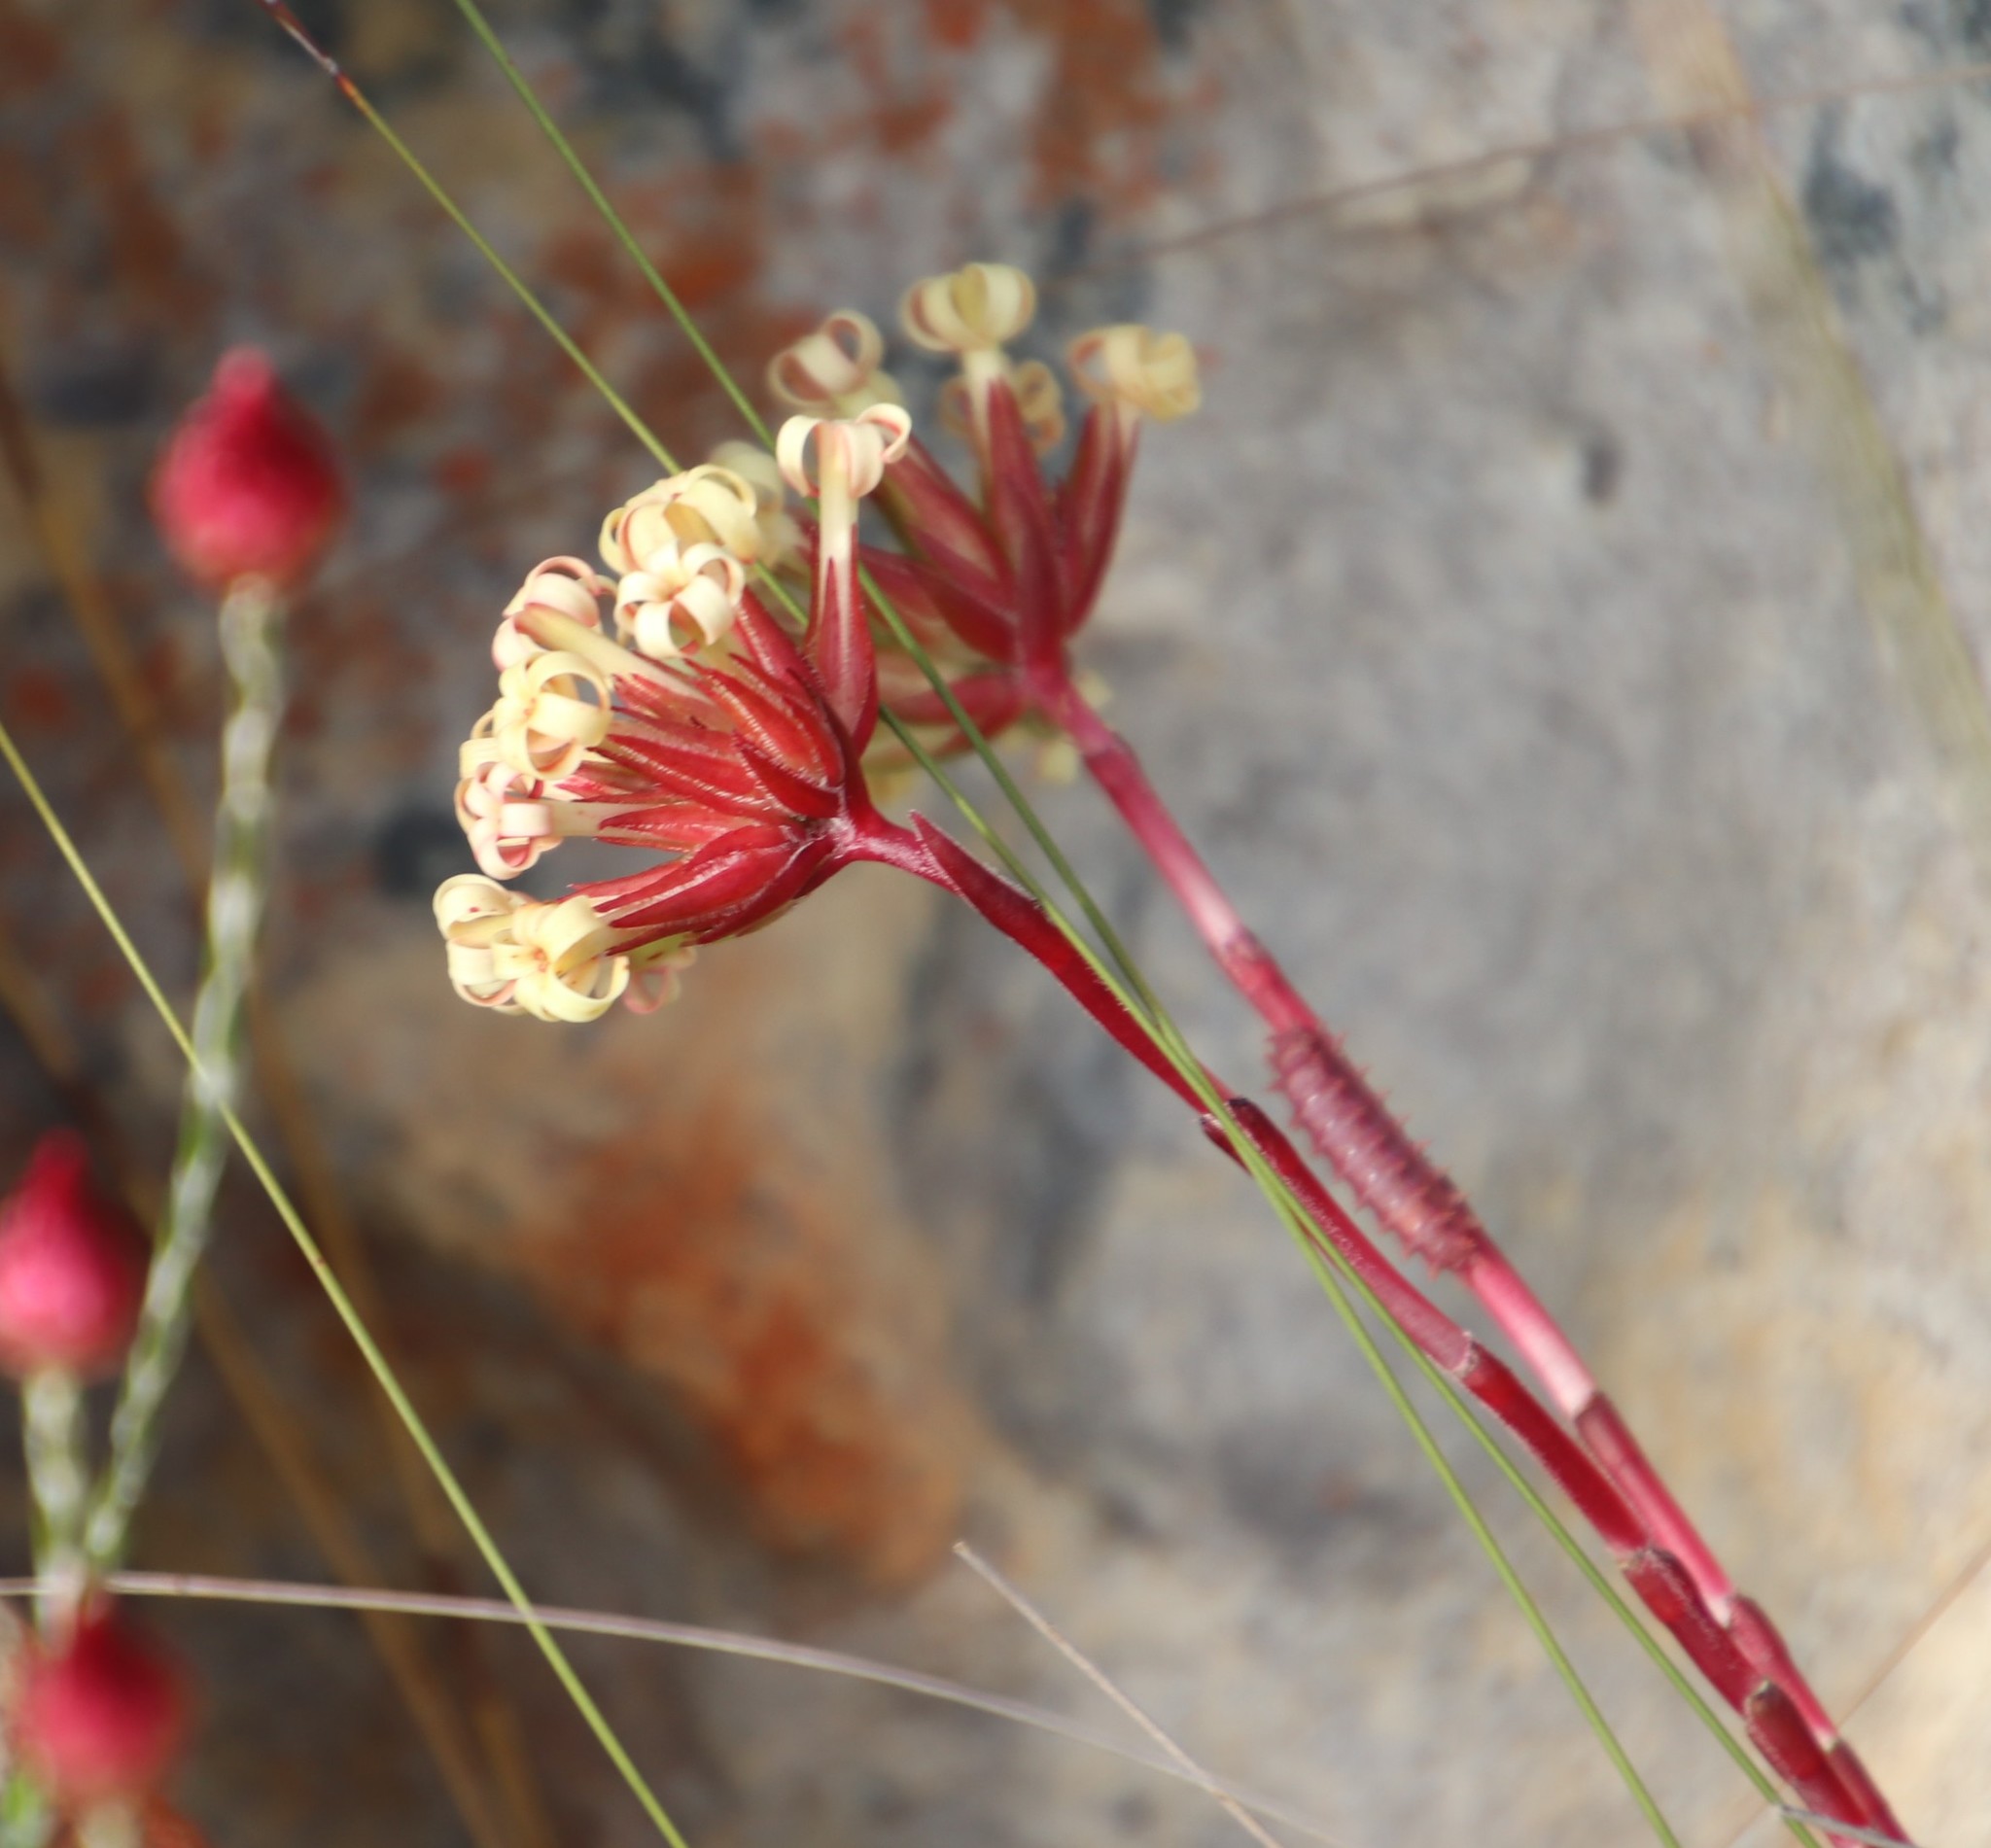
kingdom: Plantae
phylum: Tracheophyta
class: Magnoliopsida
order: Saxifragales
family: Crassulaceae
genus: Crassula
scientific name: Crassula fascicularis
